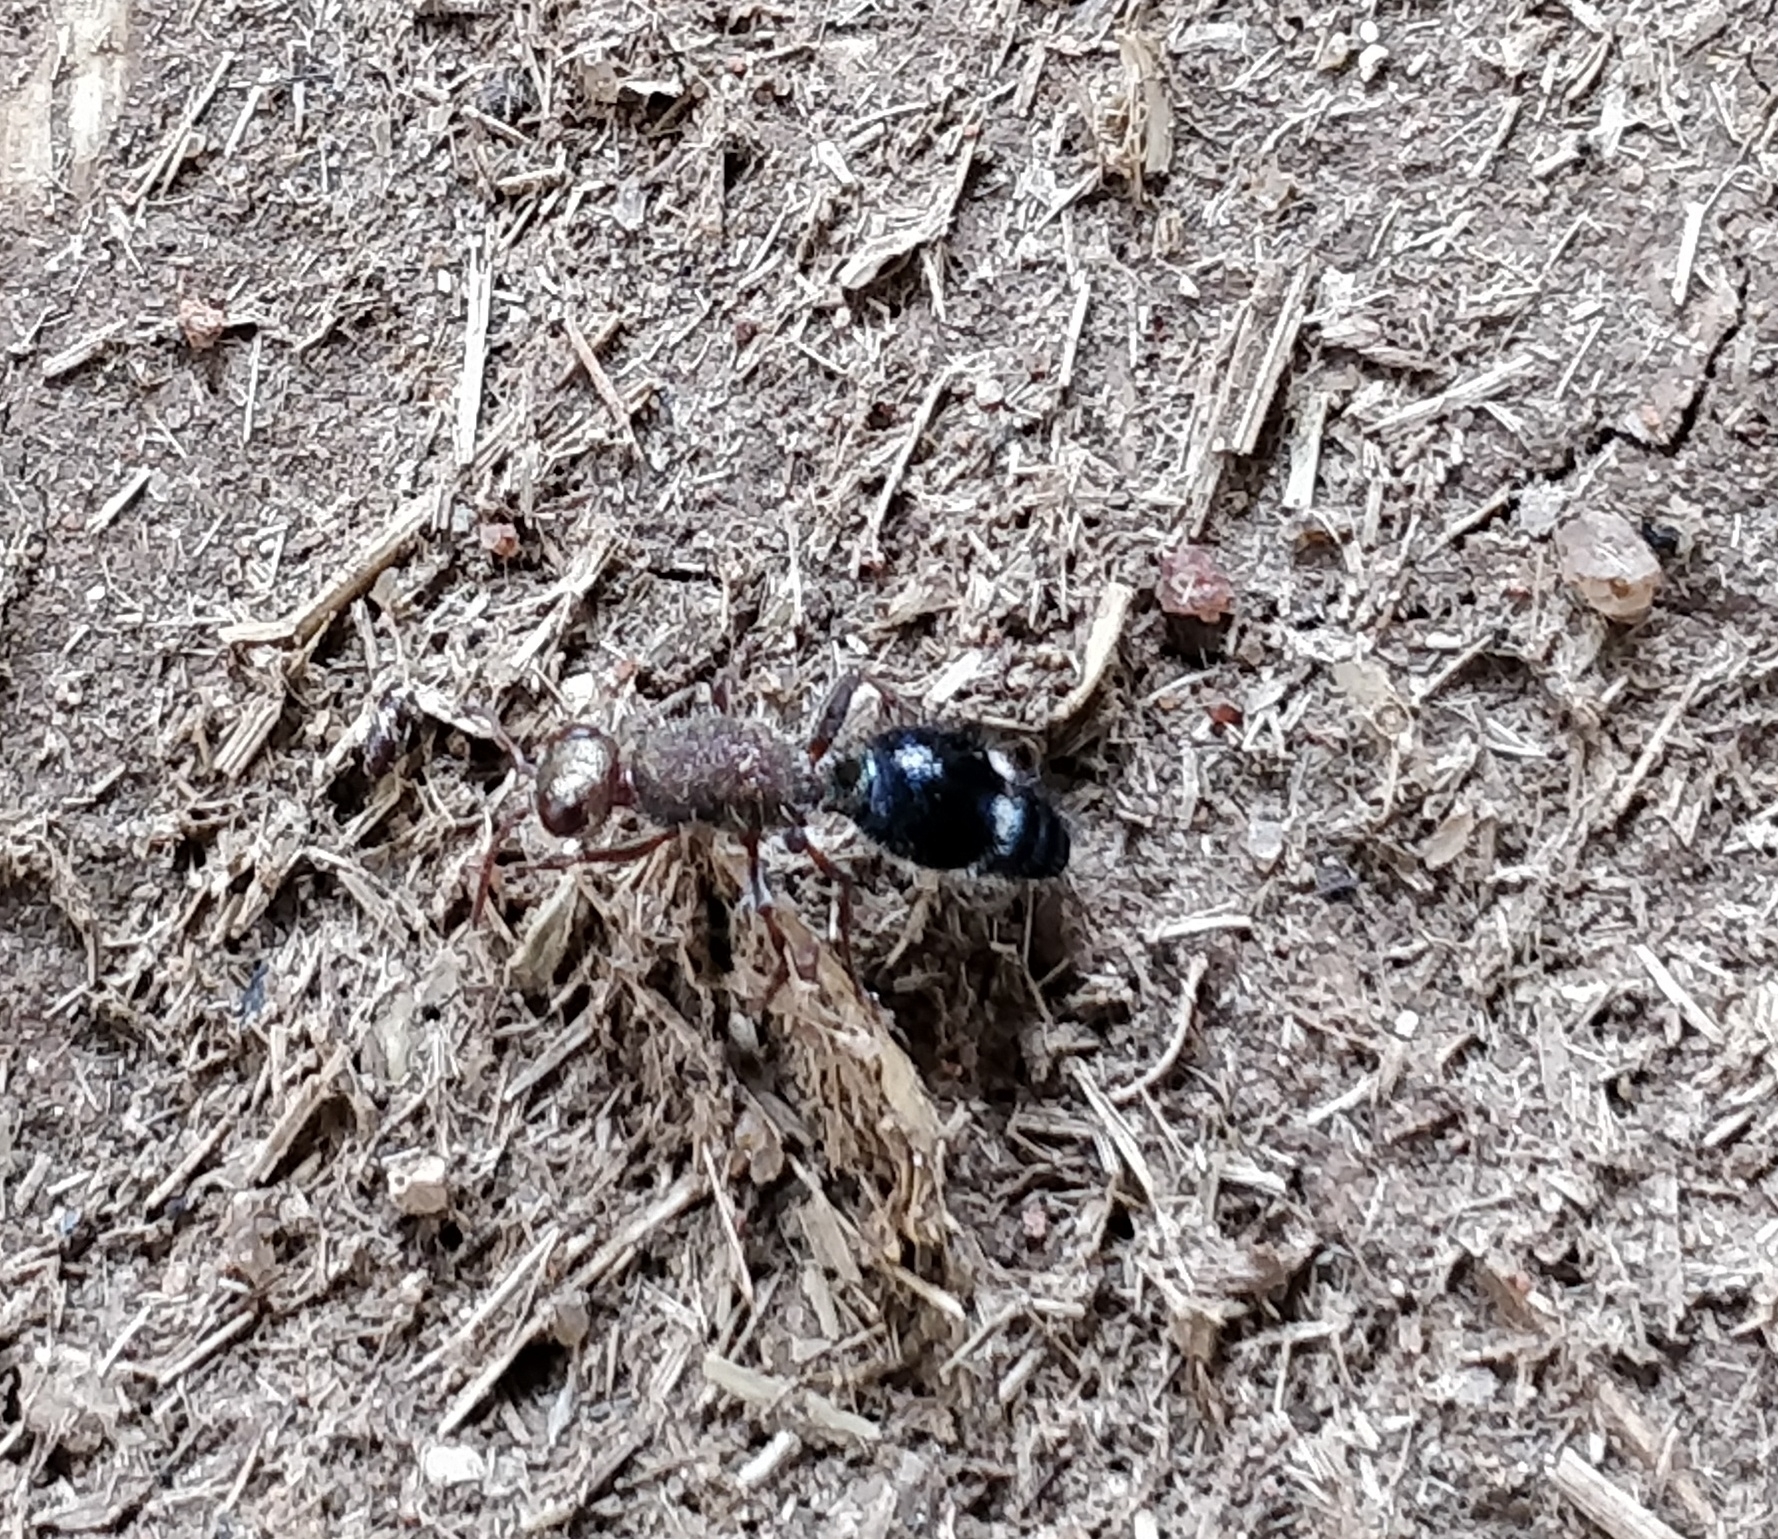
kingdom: Animalia
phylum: Arthropoda
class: Insecta
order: Hymenoptera
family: Mutillidae
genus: Promecilla
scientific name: Promecilla
